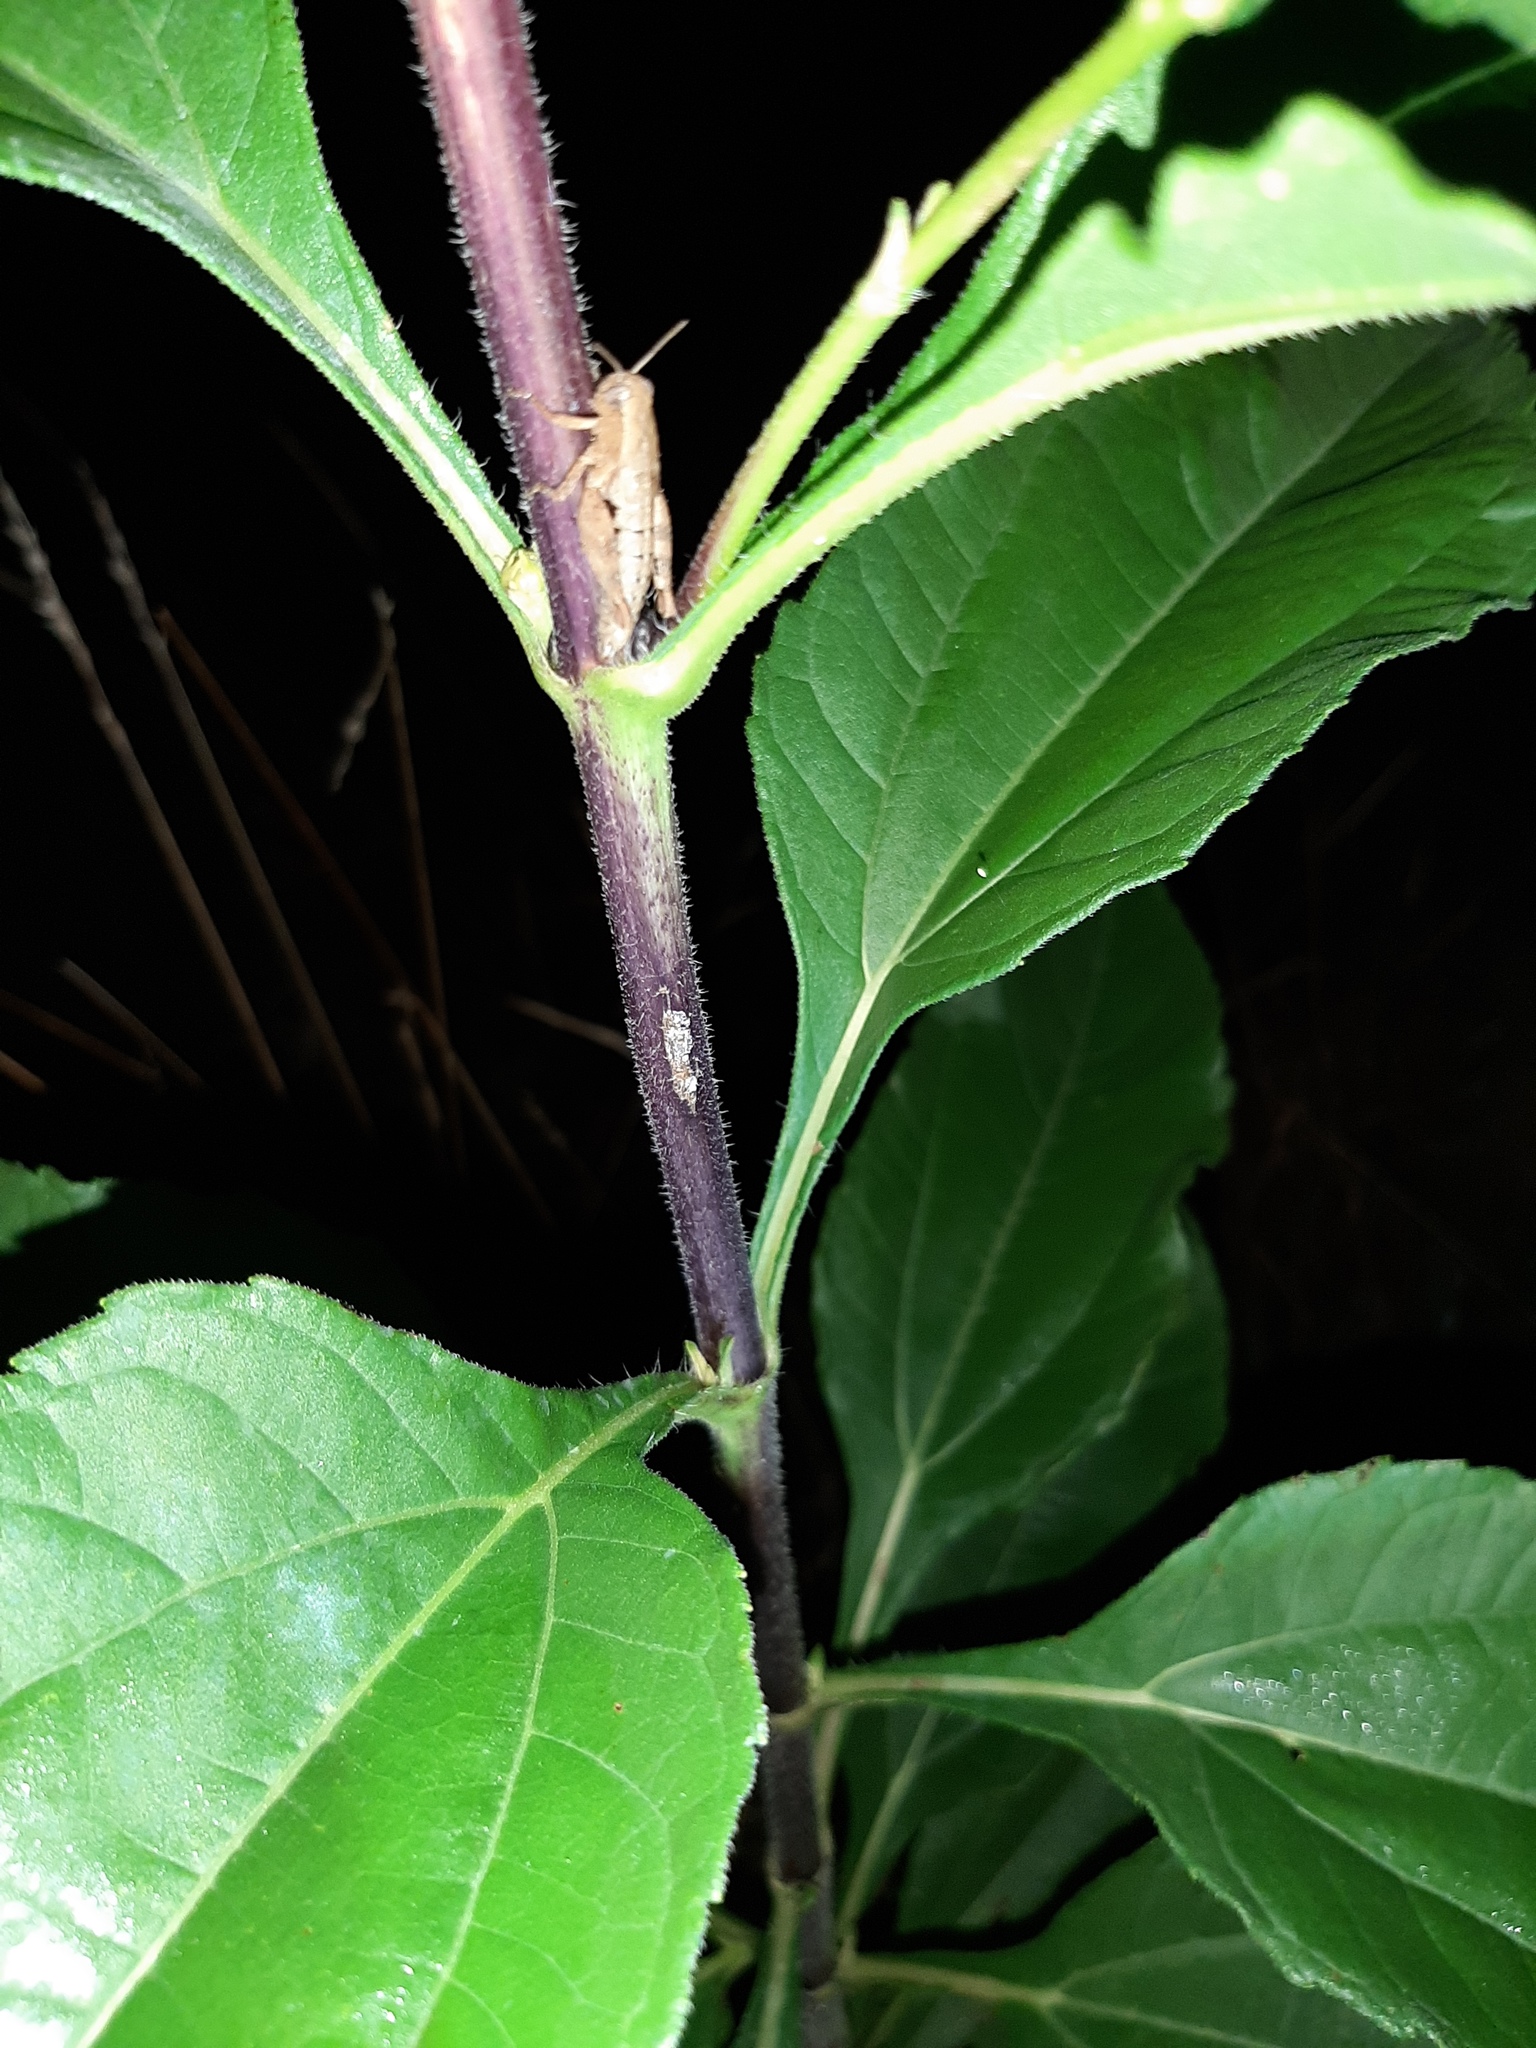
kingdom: Animalia
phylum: Arthropoda
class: Insecta
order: Orthoptera
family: Acrididae
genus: Pezotettix
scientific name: Pezotettix giornae
